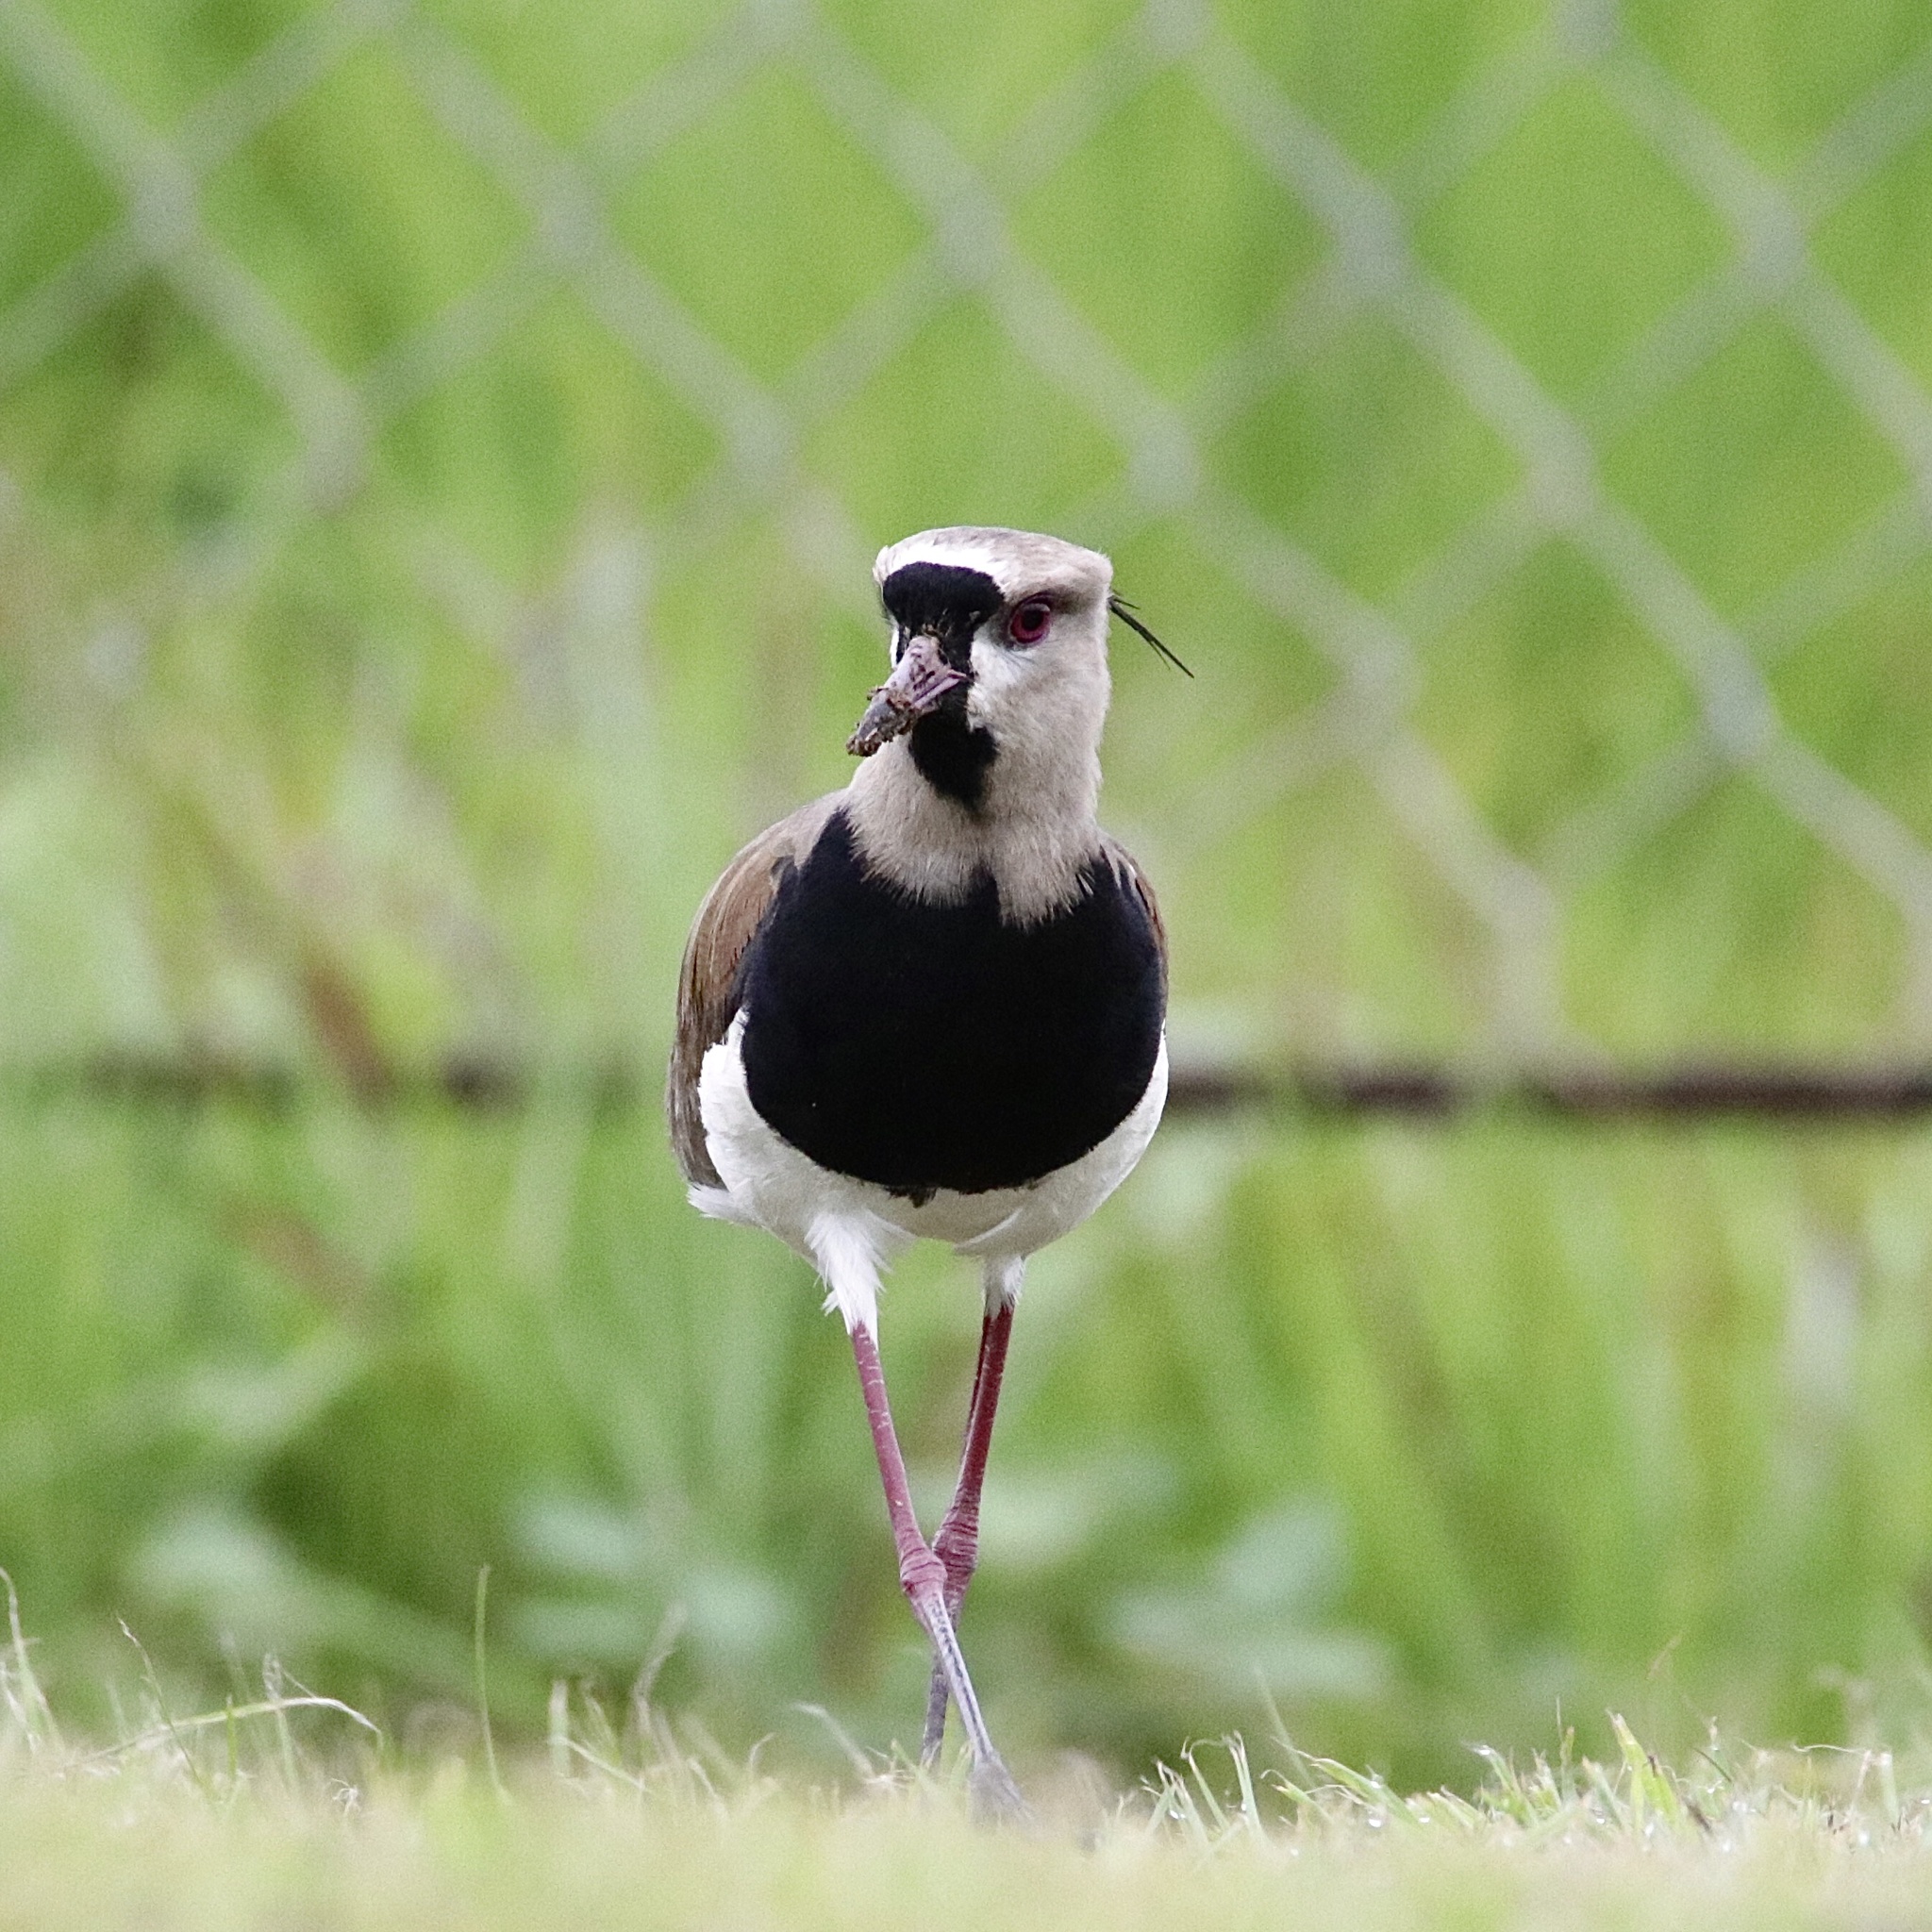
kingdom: Animalia
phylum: Chordata
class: Aves
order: Charadriiformes
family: Charadriidae
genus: Vanellus
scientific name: Vanellus chilensis
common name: Southern lapwing
